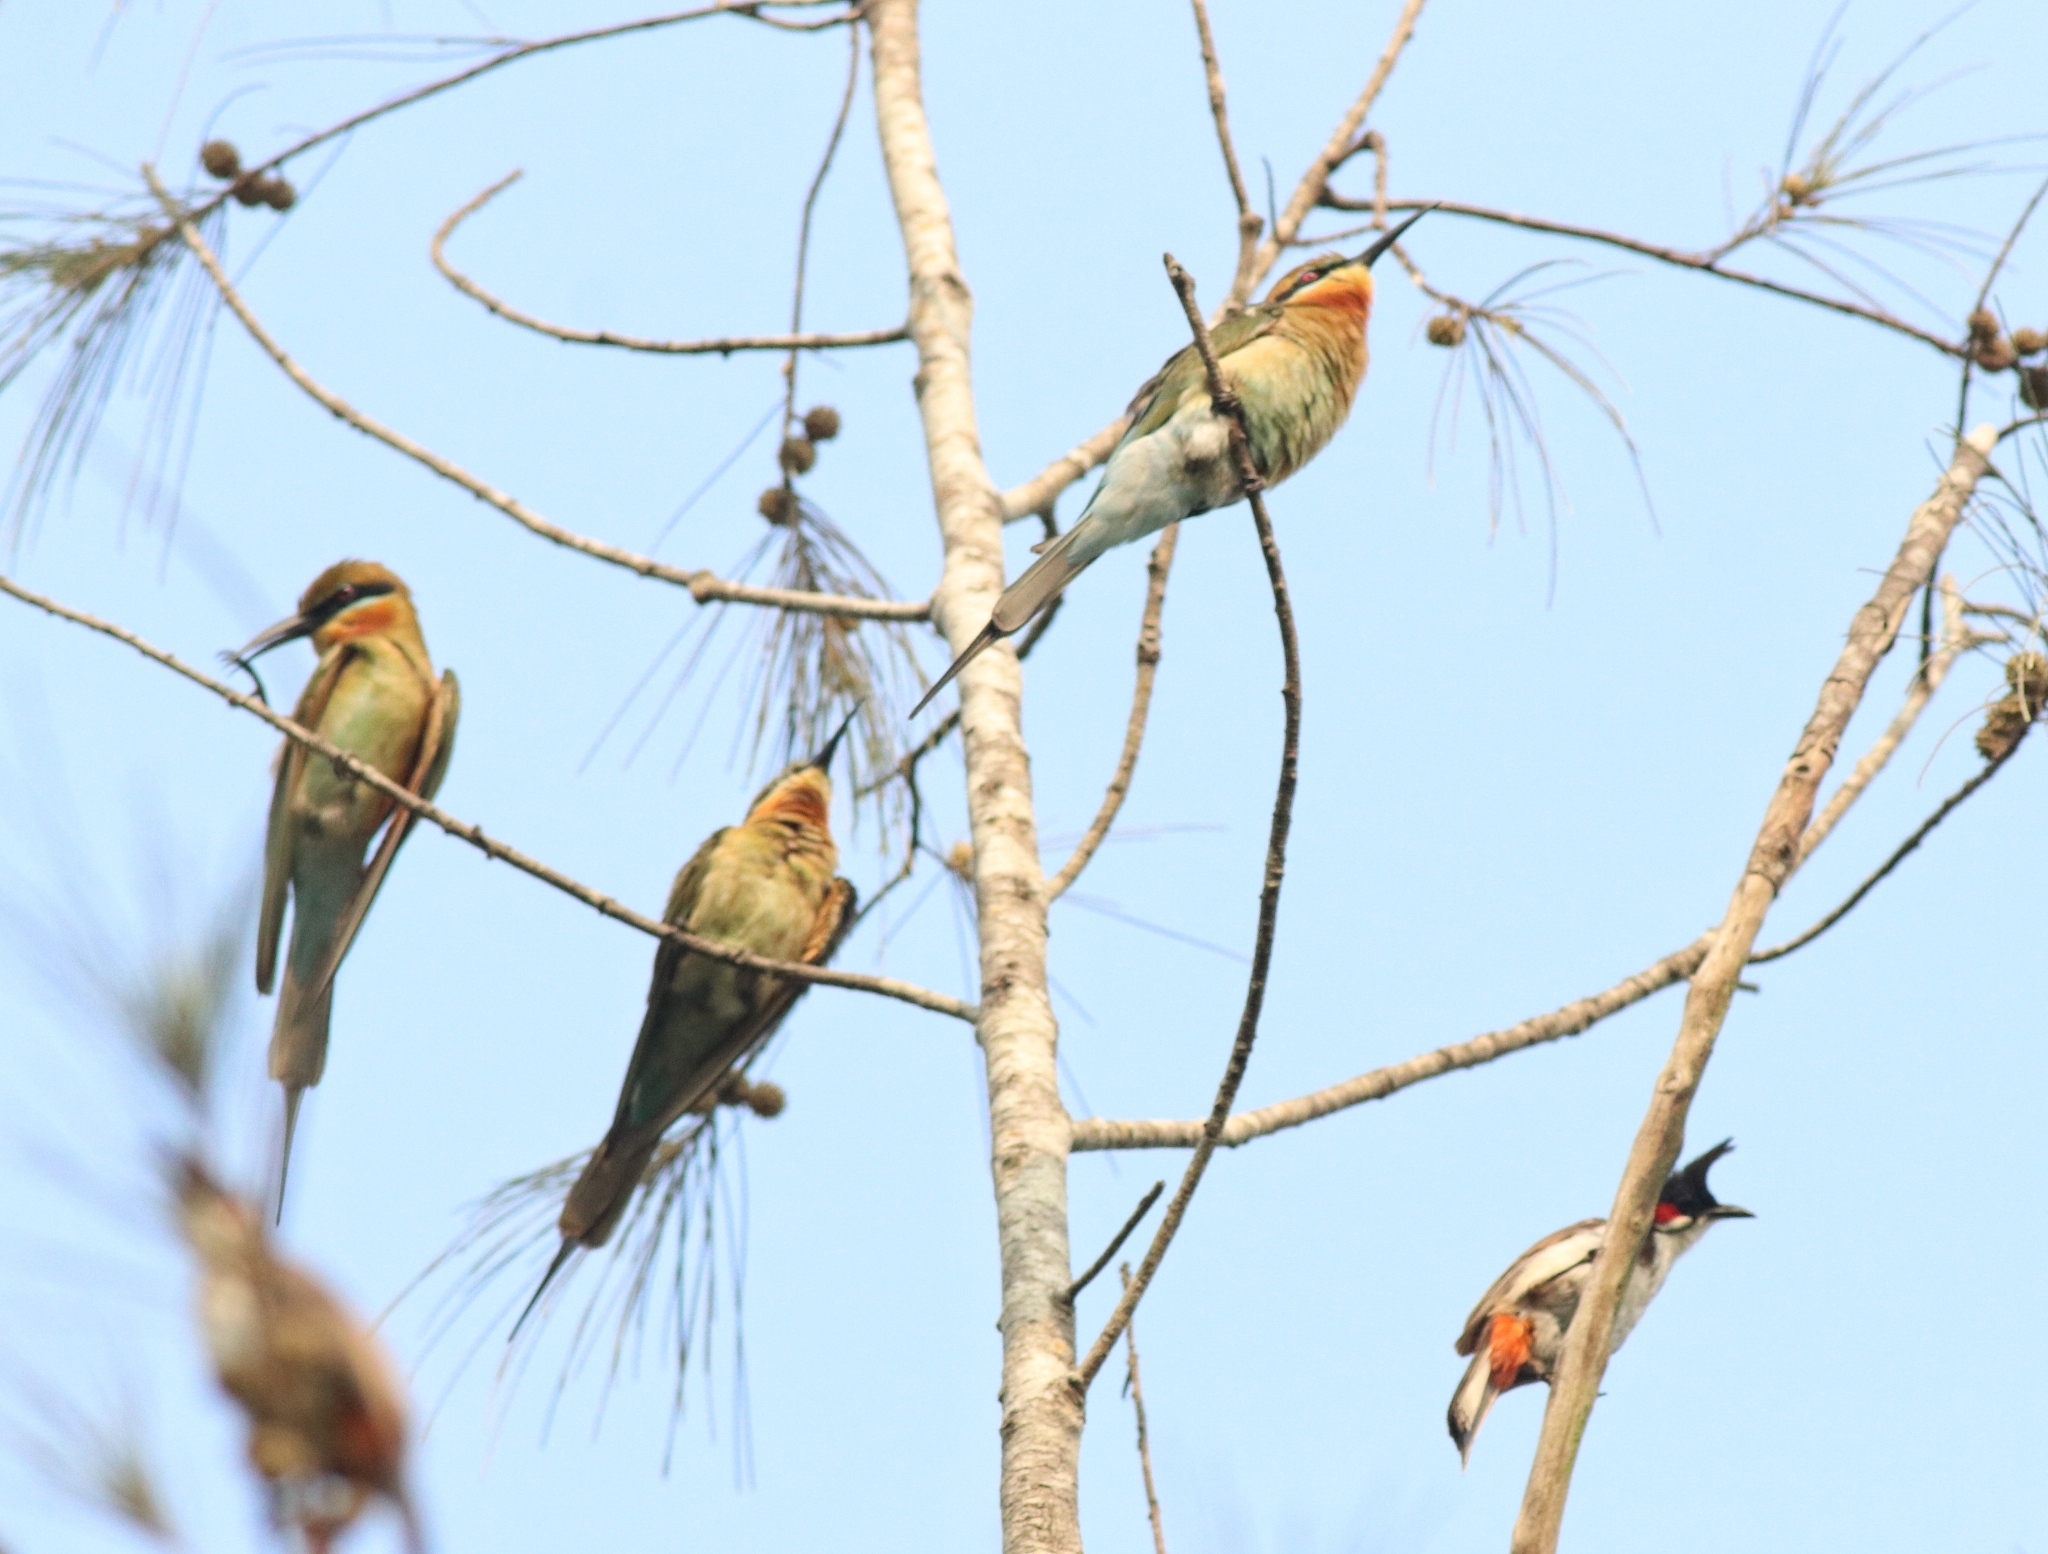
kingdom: Animalia
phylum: Chordata
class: Aves
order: Coraciiformes
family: Meropidae
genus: Merops
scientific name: Merops philippinus
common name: Blue-tailed bee-eater
